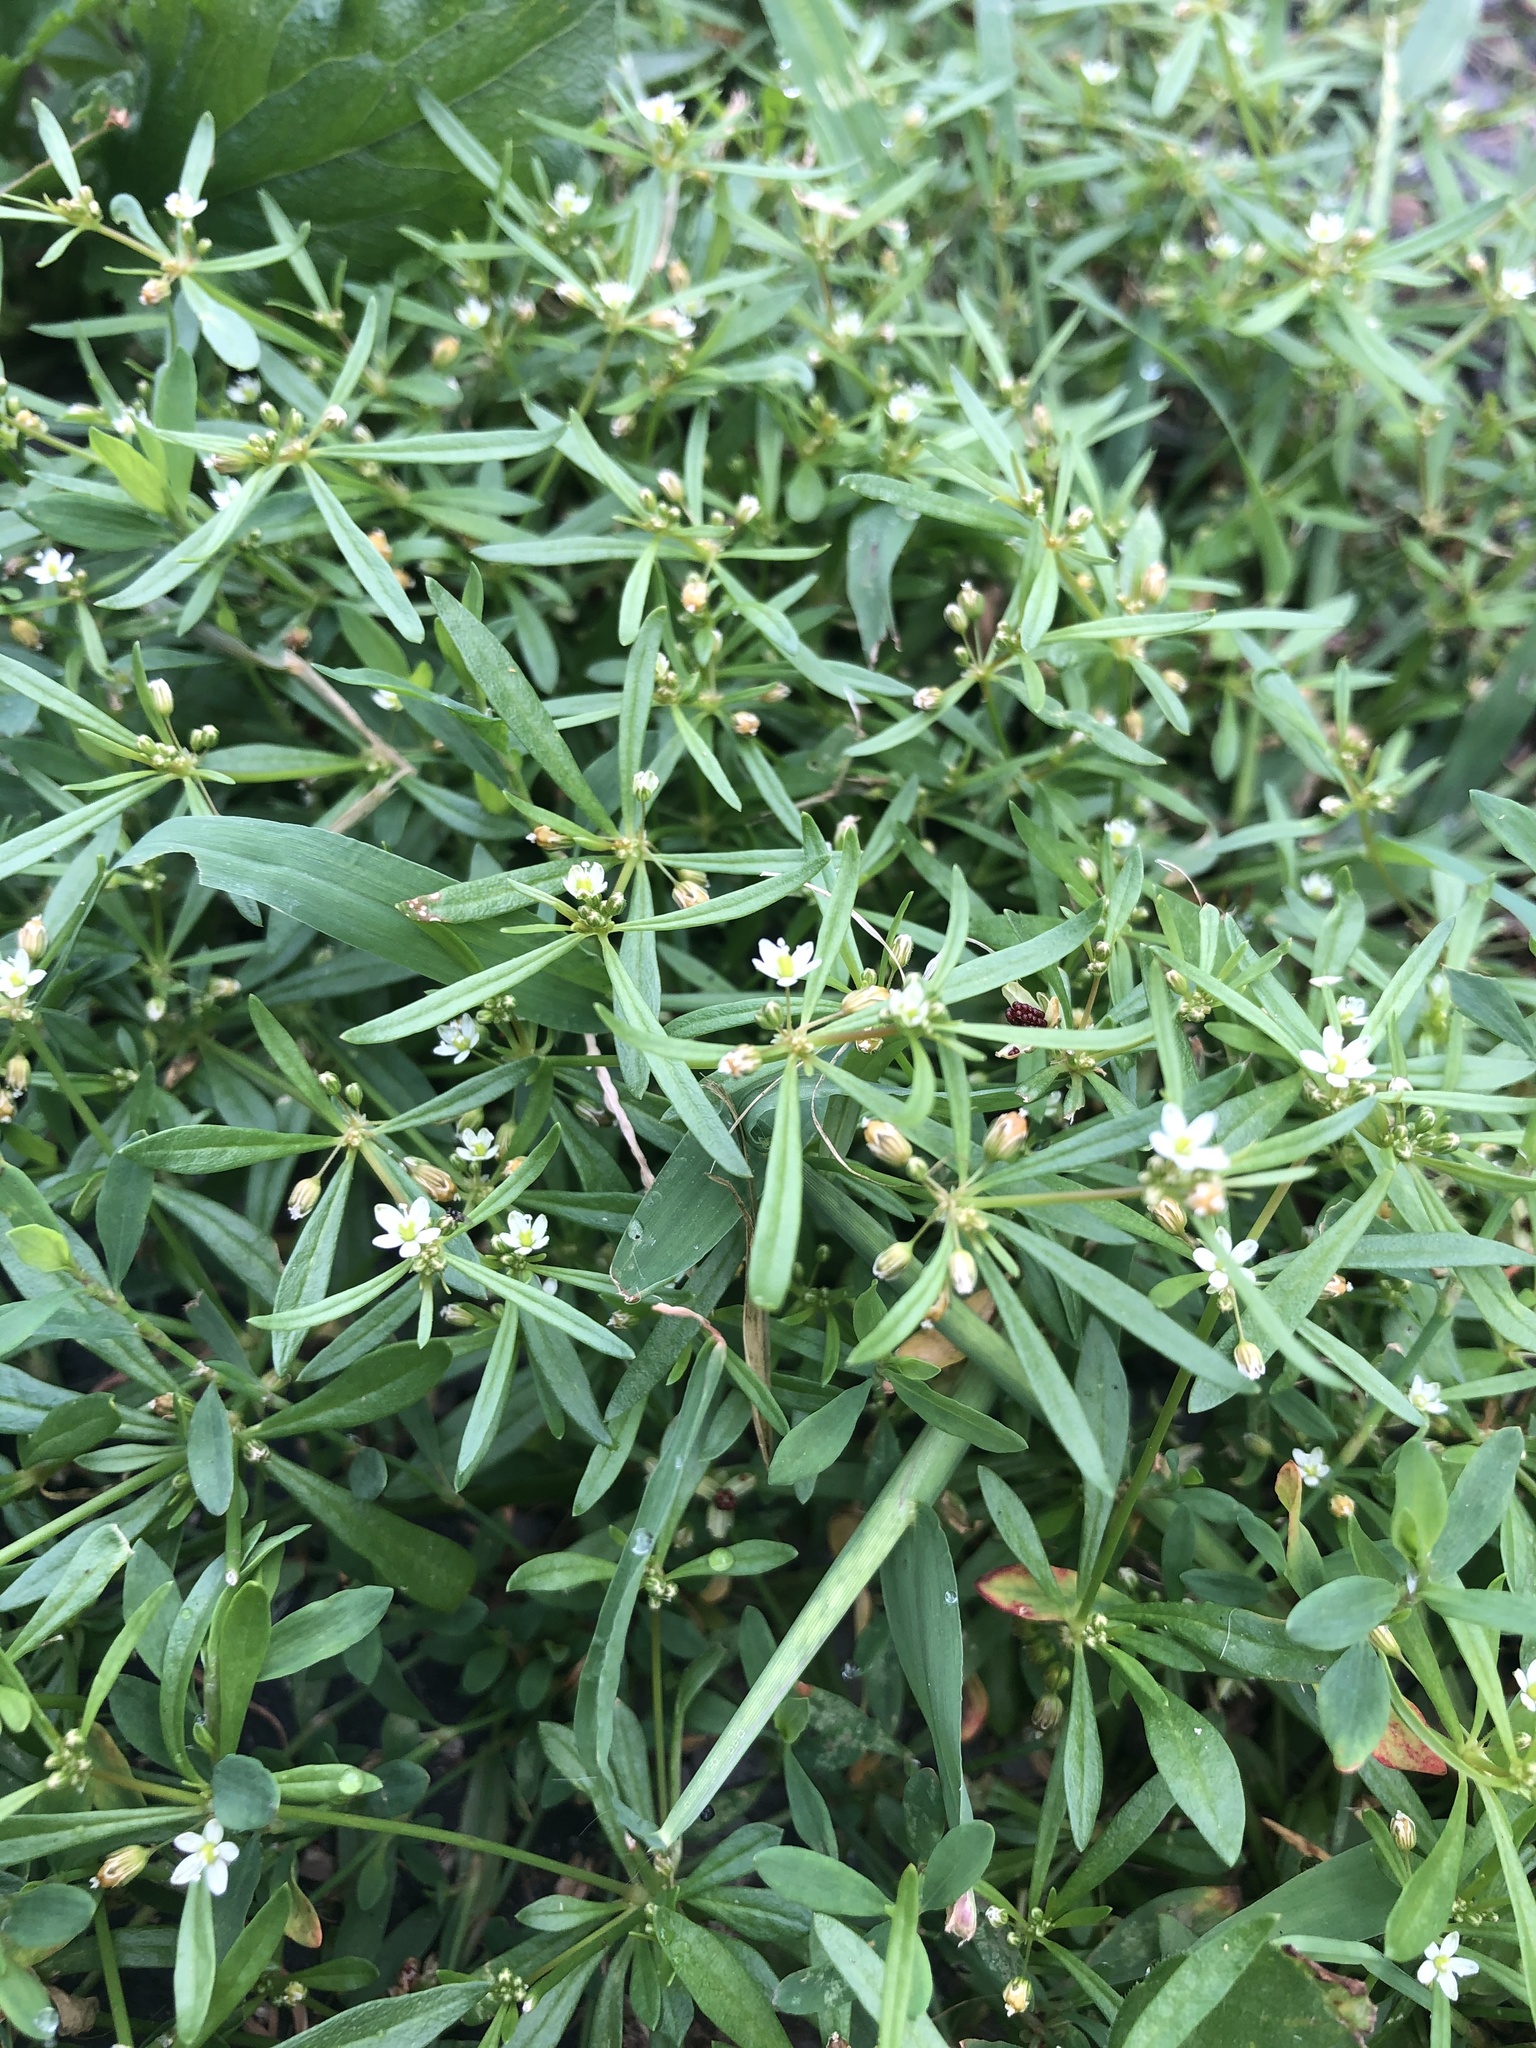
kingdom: Plantae
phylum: Tracheophyta
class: Magnoliopsida
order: Caryophyllales
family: Molluginaceae
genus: Mollugo
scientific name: Mollugo verticillata
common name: Green carpetweed
